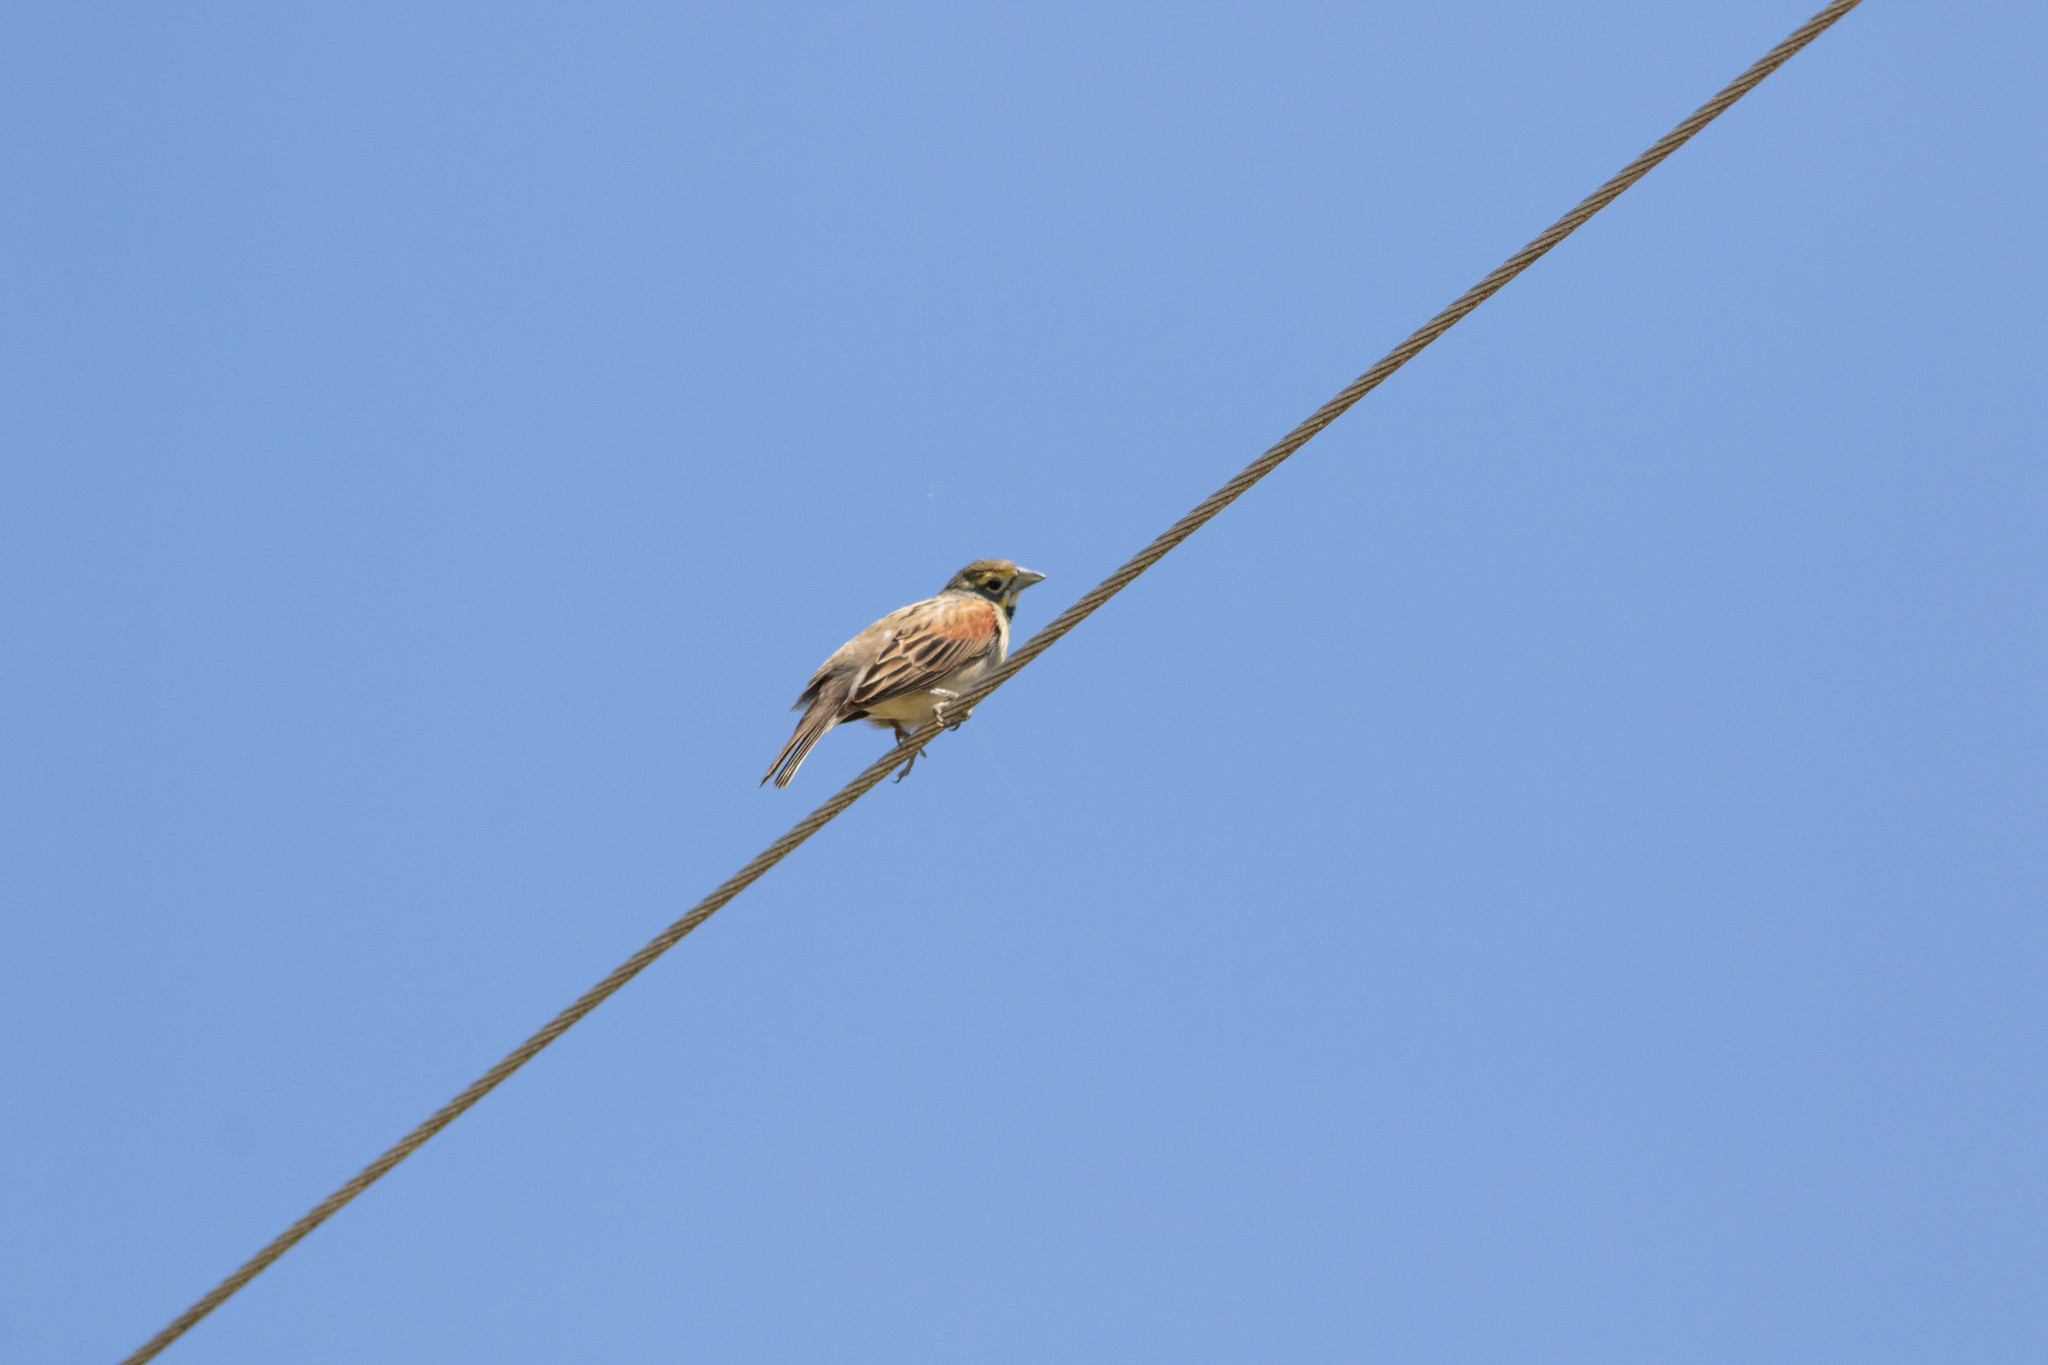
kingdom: Animalia
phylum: Chordata
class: Aves
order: Passeriformes
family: Cardinalidae
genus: Spiza
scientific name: Spiza americana
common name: Dickcissel
